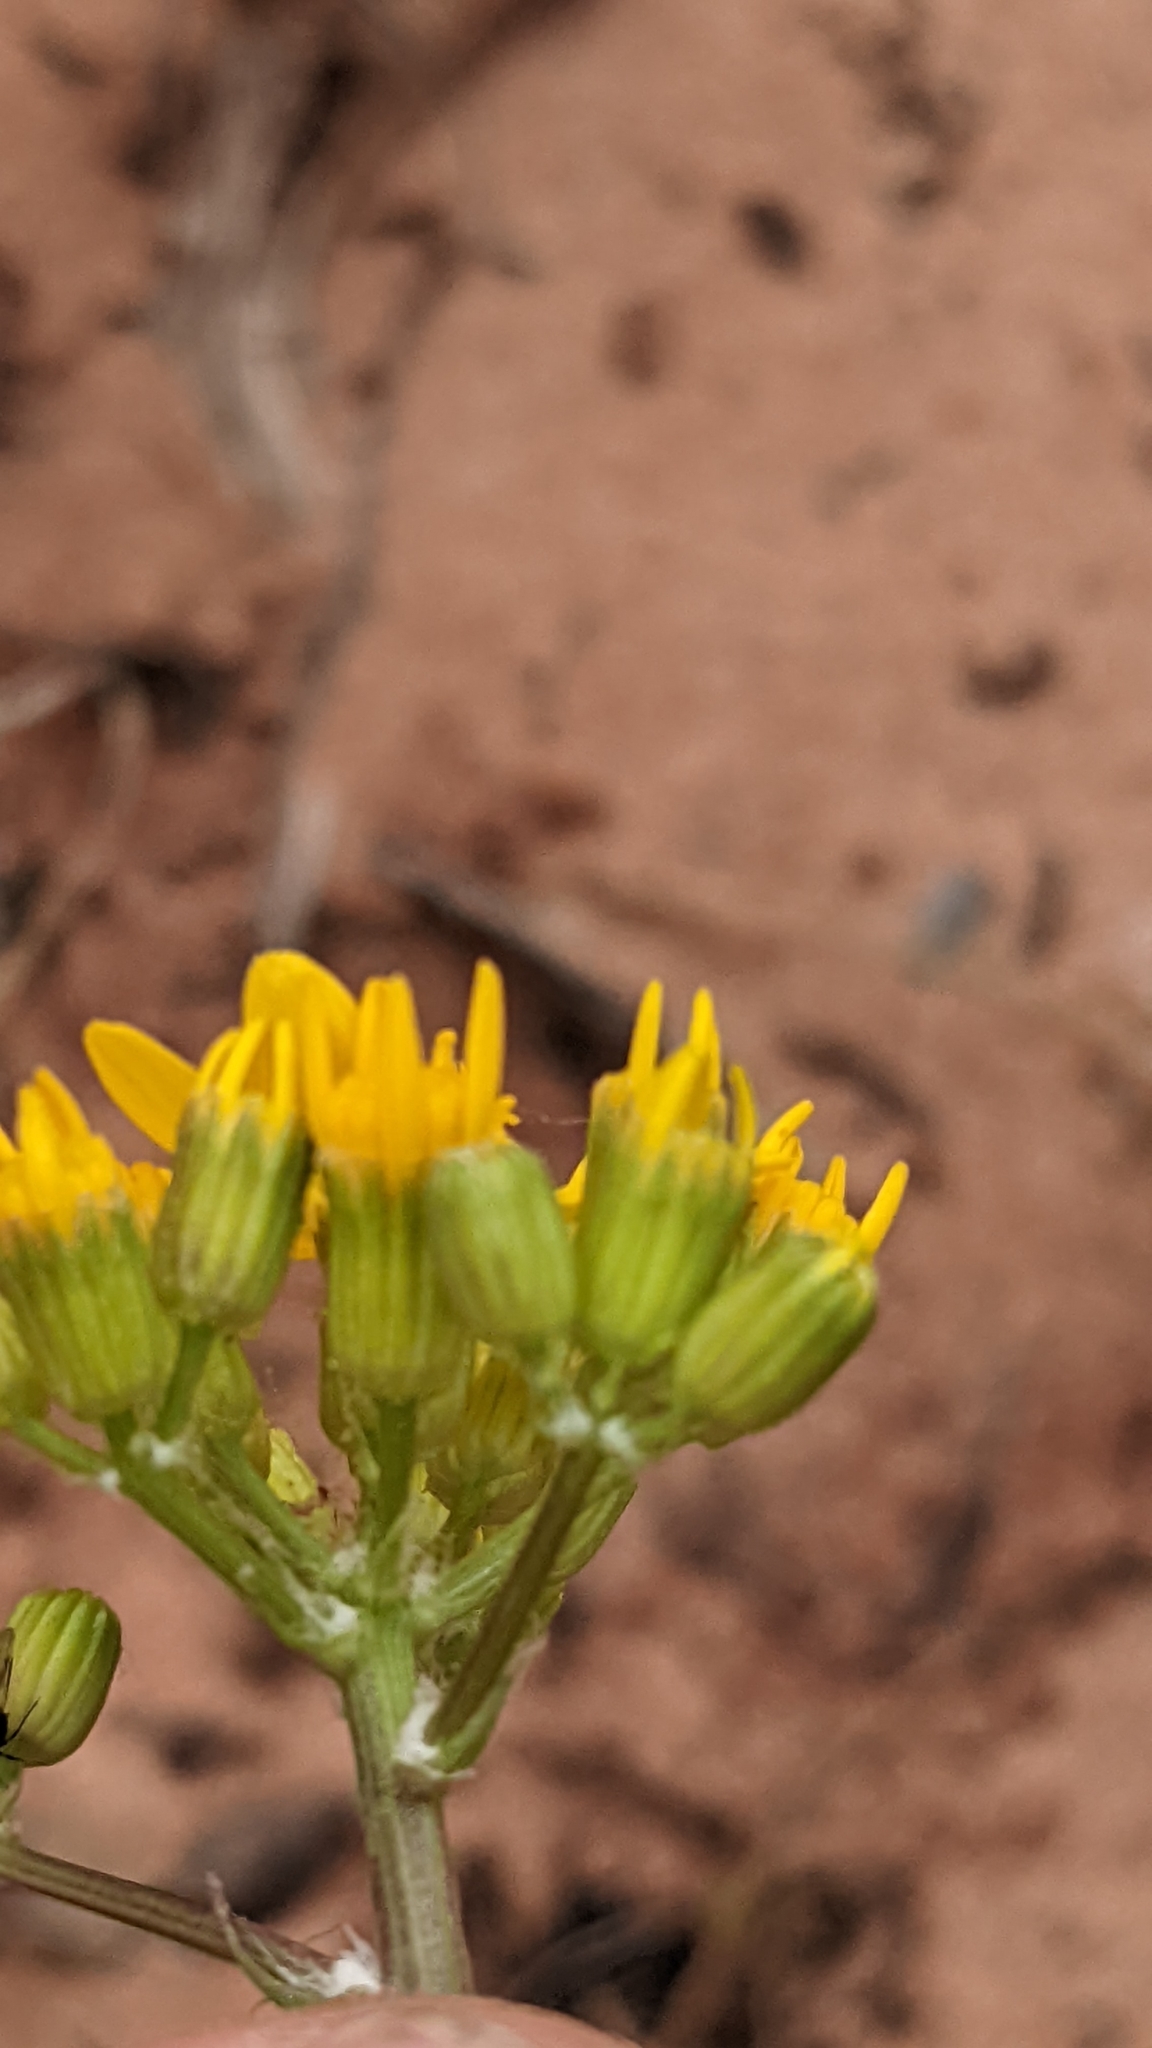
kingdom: Plantae
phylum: Tracheophyta
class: Magnoliopsida
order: Asterales
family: Asteraceae
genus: Packera
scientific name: Packera multilobata
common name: Lobe-leaf groundsel
